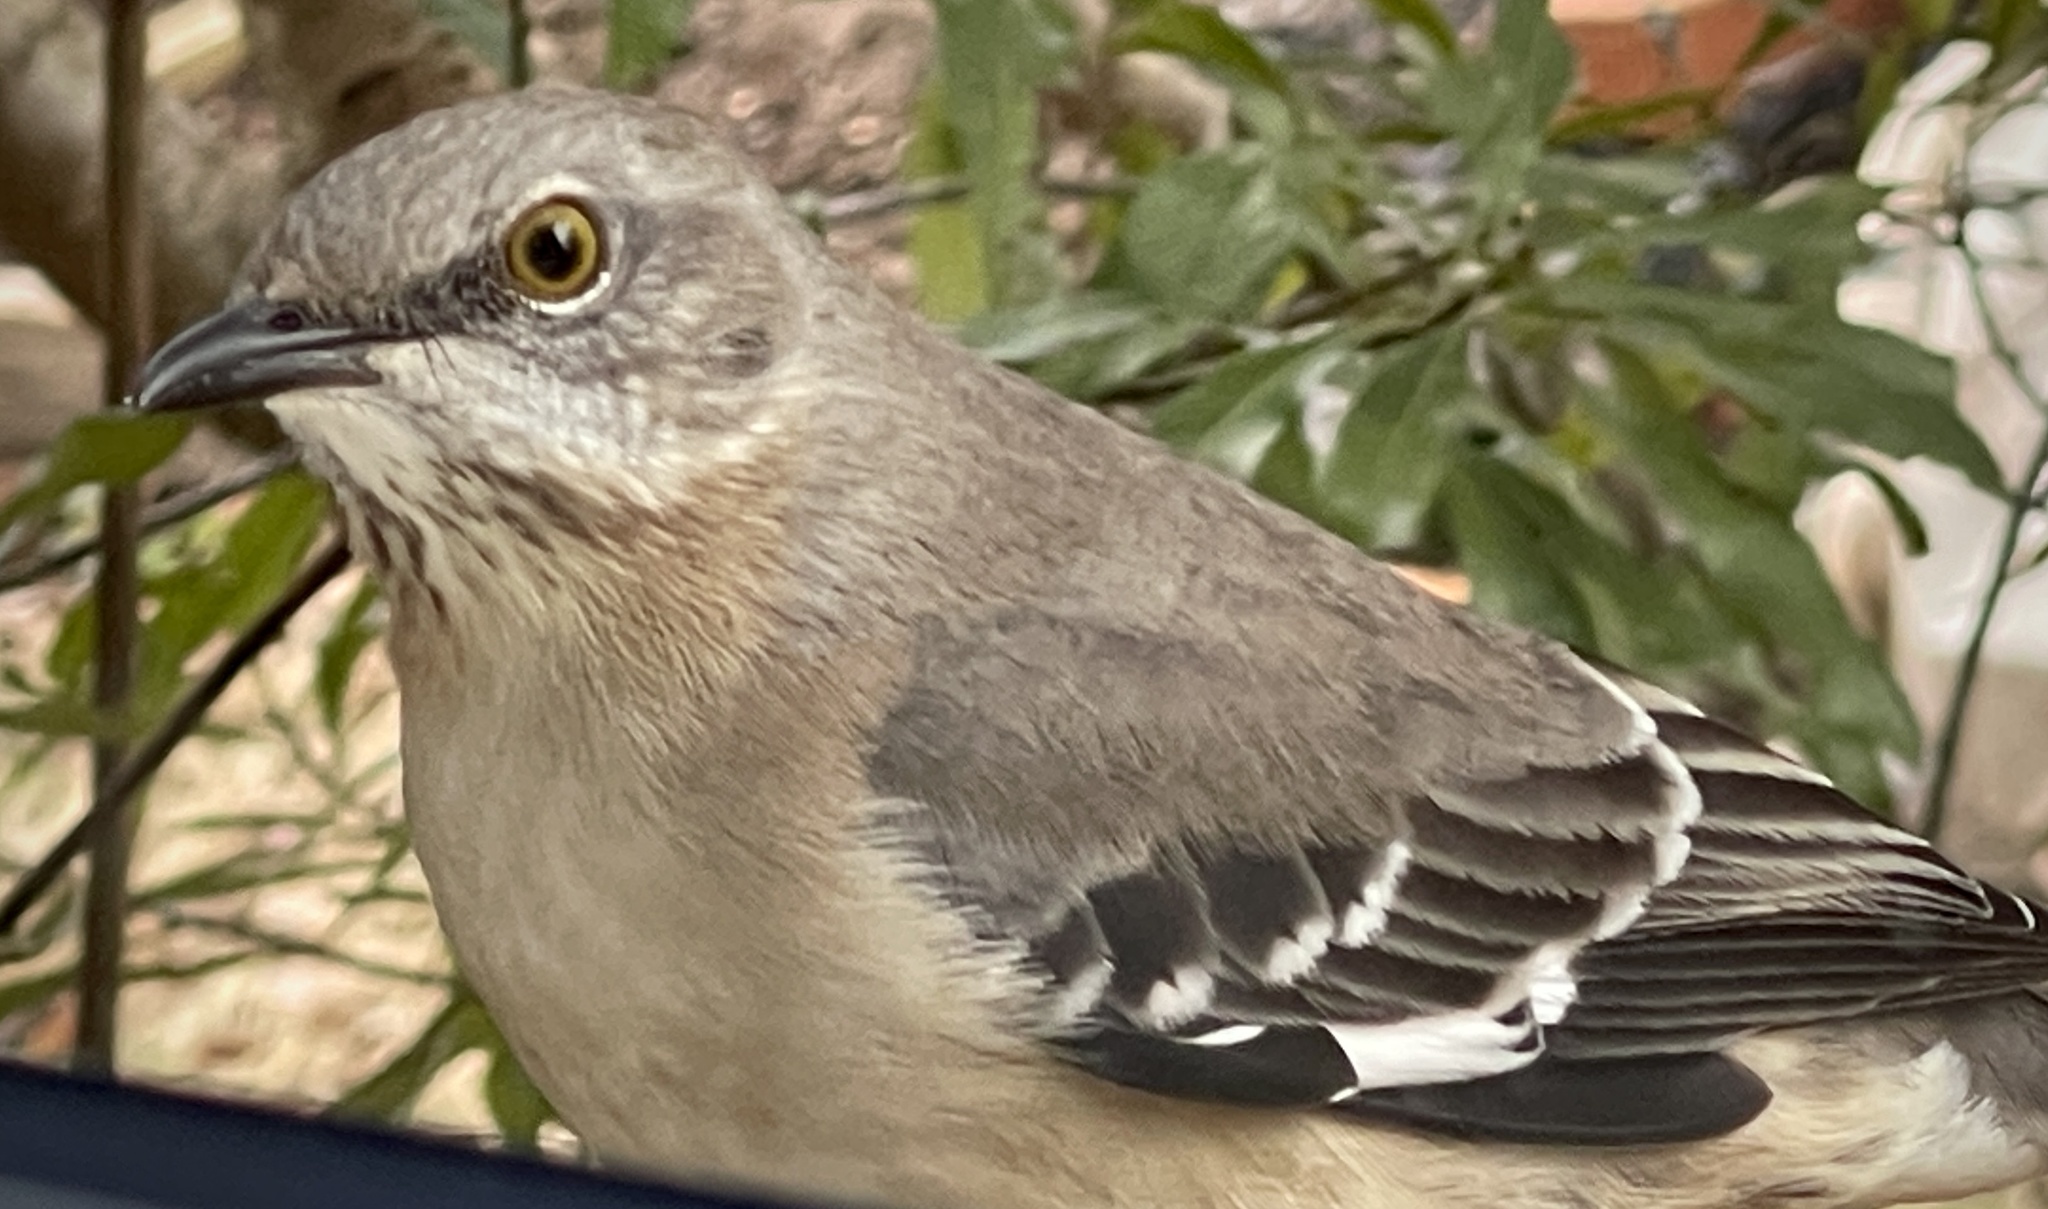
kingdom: Animalia
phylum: Chordata
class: Aves
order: Passeriformes
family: Mimidae
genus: Mimus
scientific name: Mimus polyglottos
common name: Northern mockingbird
